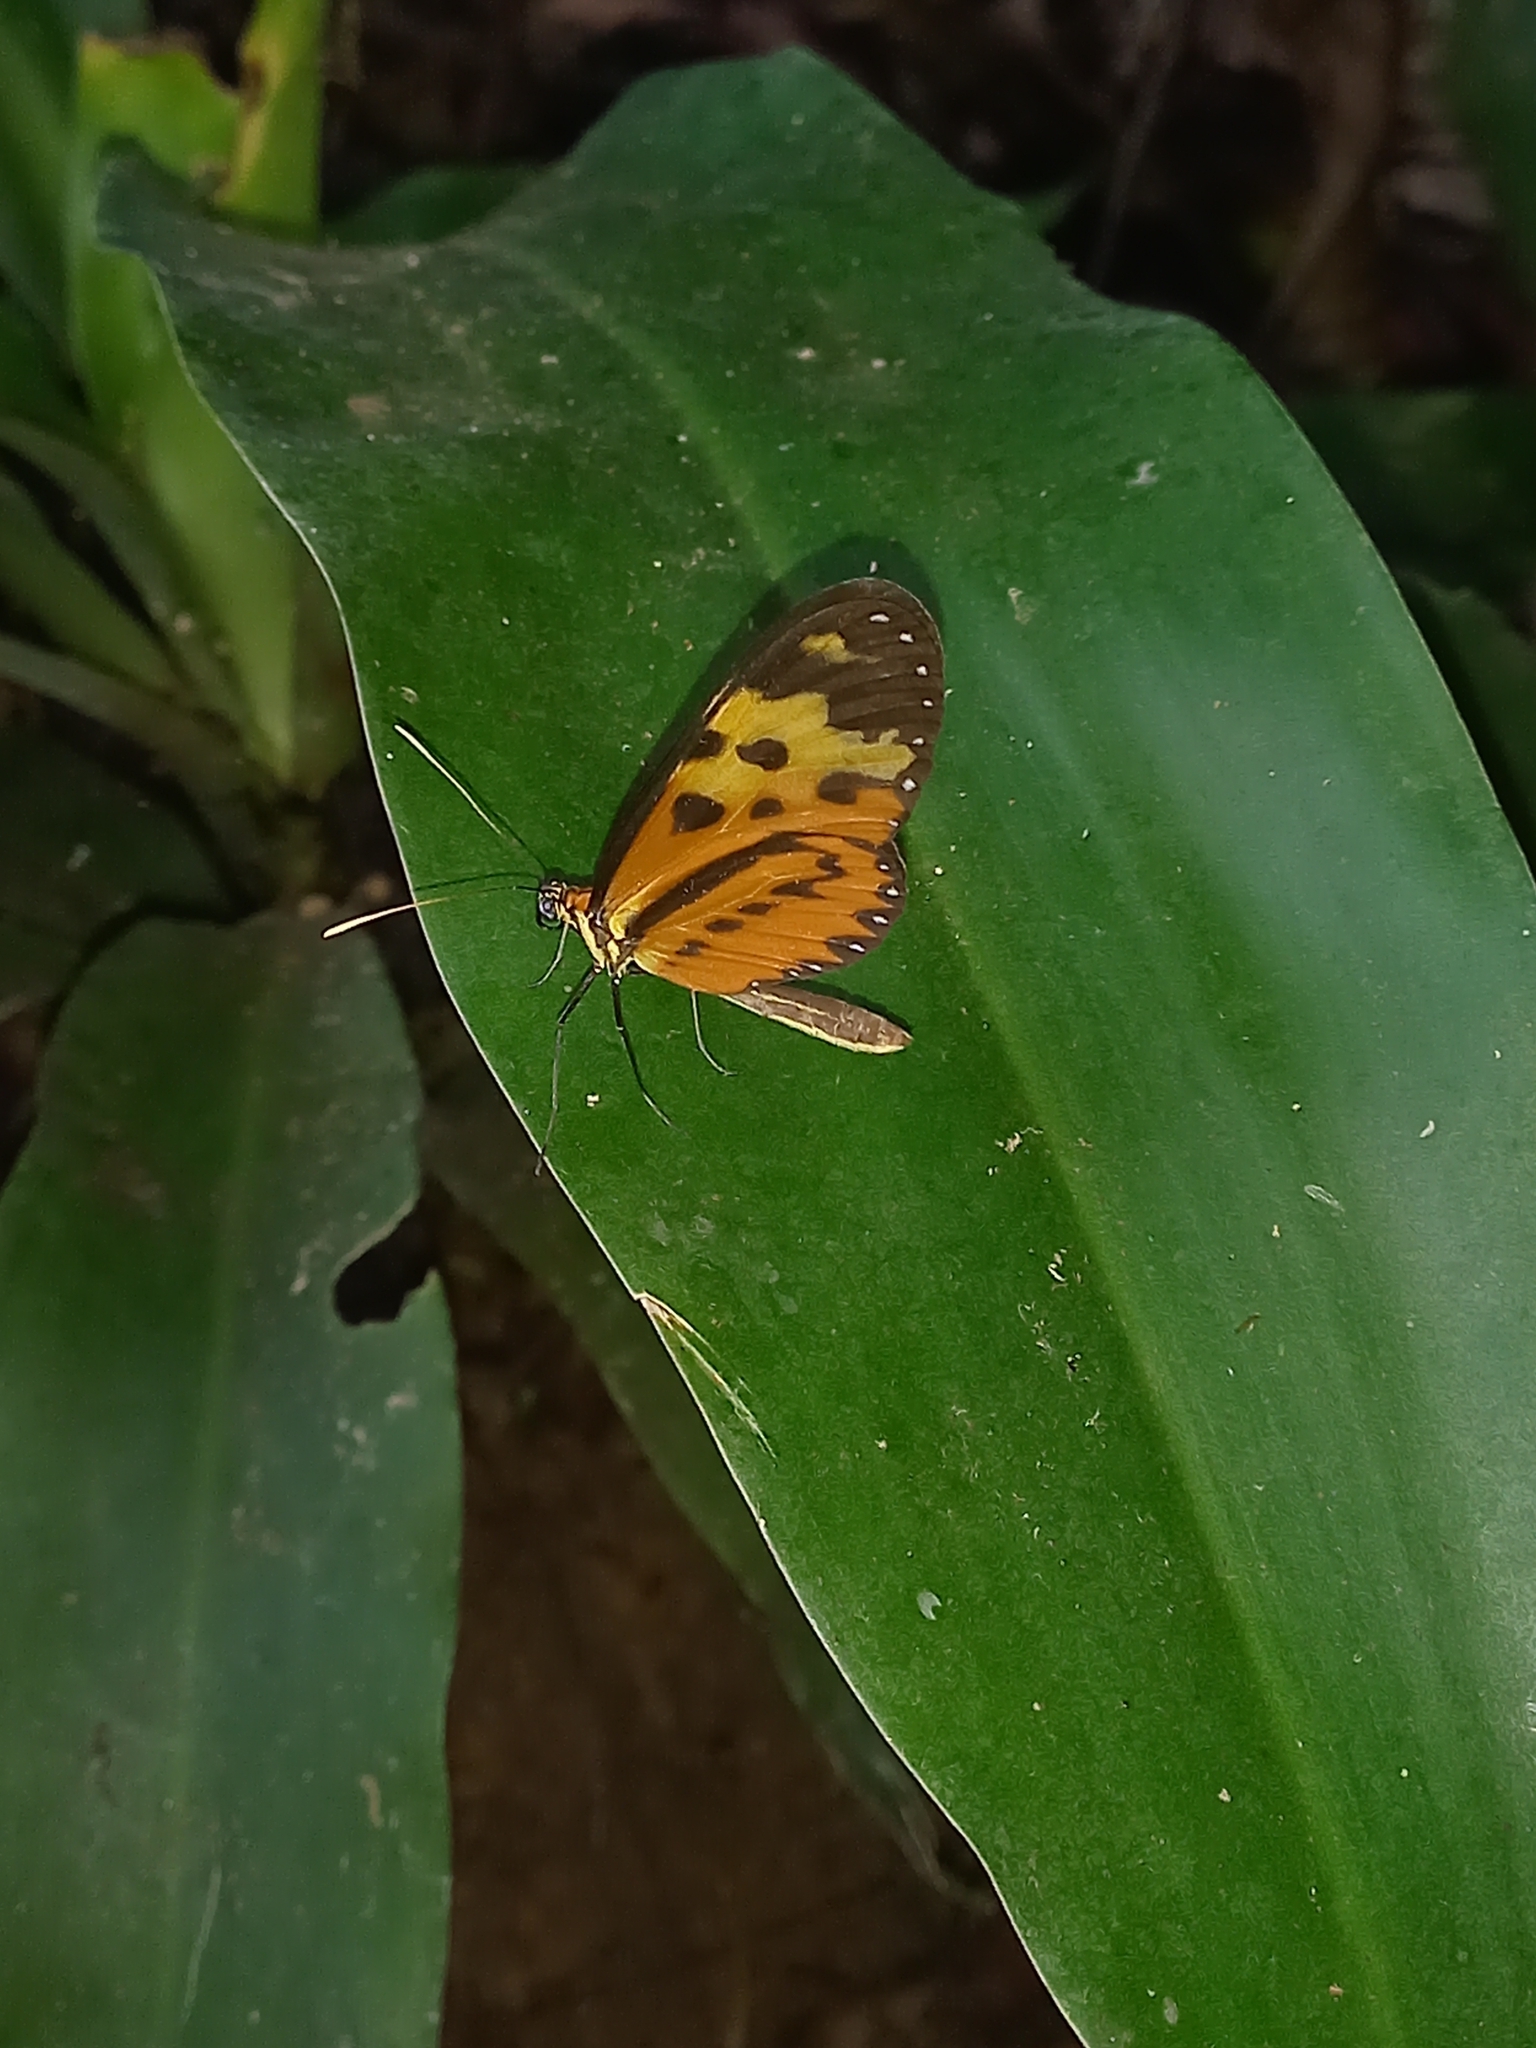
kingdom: Animalia
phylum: Arthropoda
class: Insecta
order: Lepidoptera
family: Nymphalidae
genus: Mechanitis
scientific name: Mechanitis mazaeus
